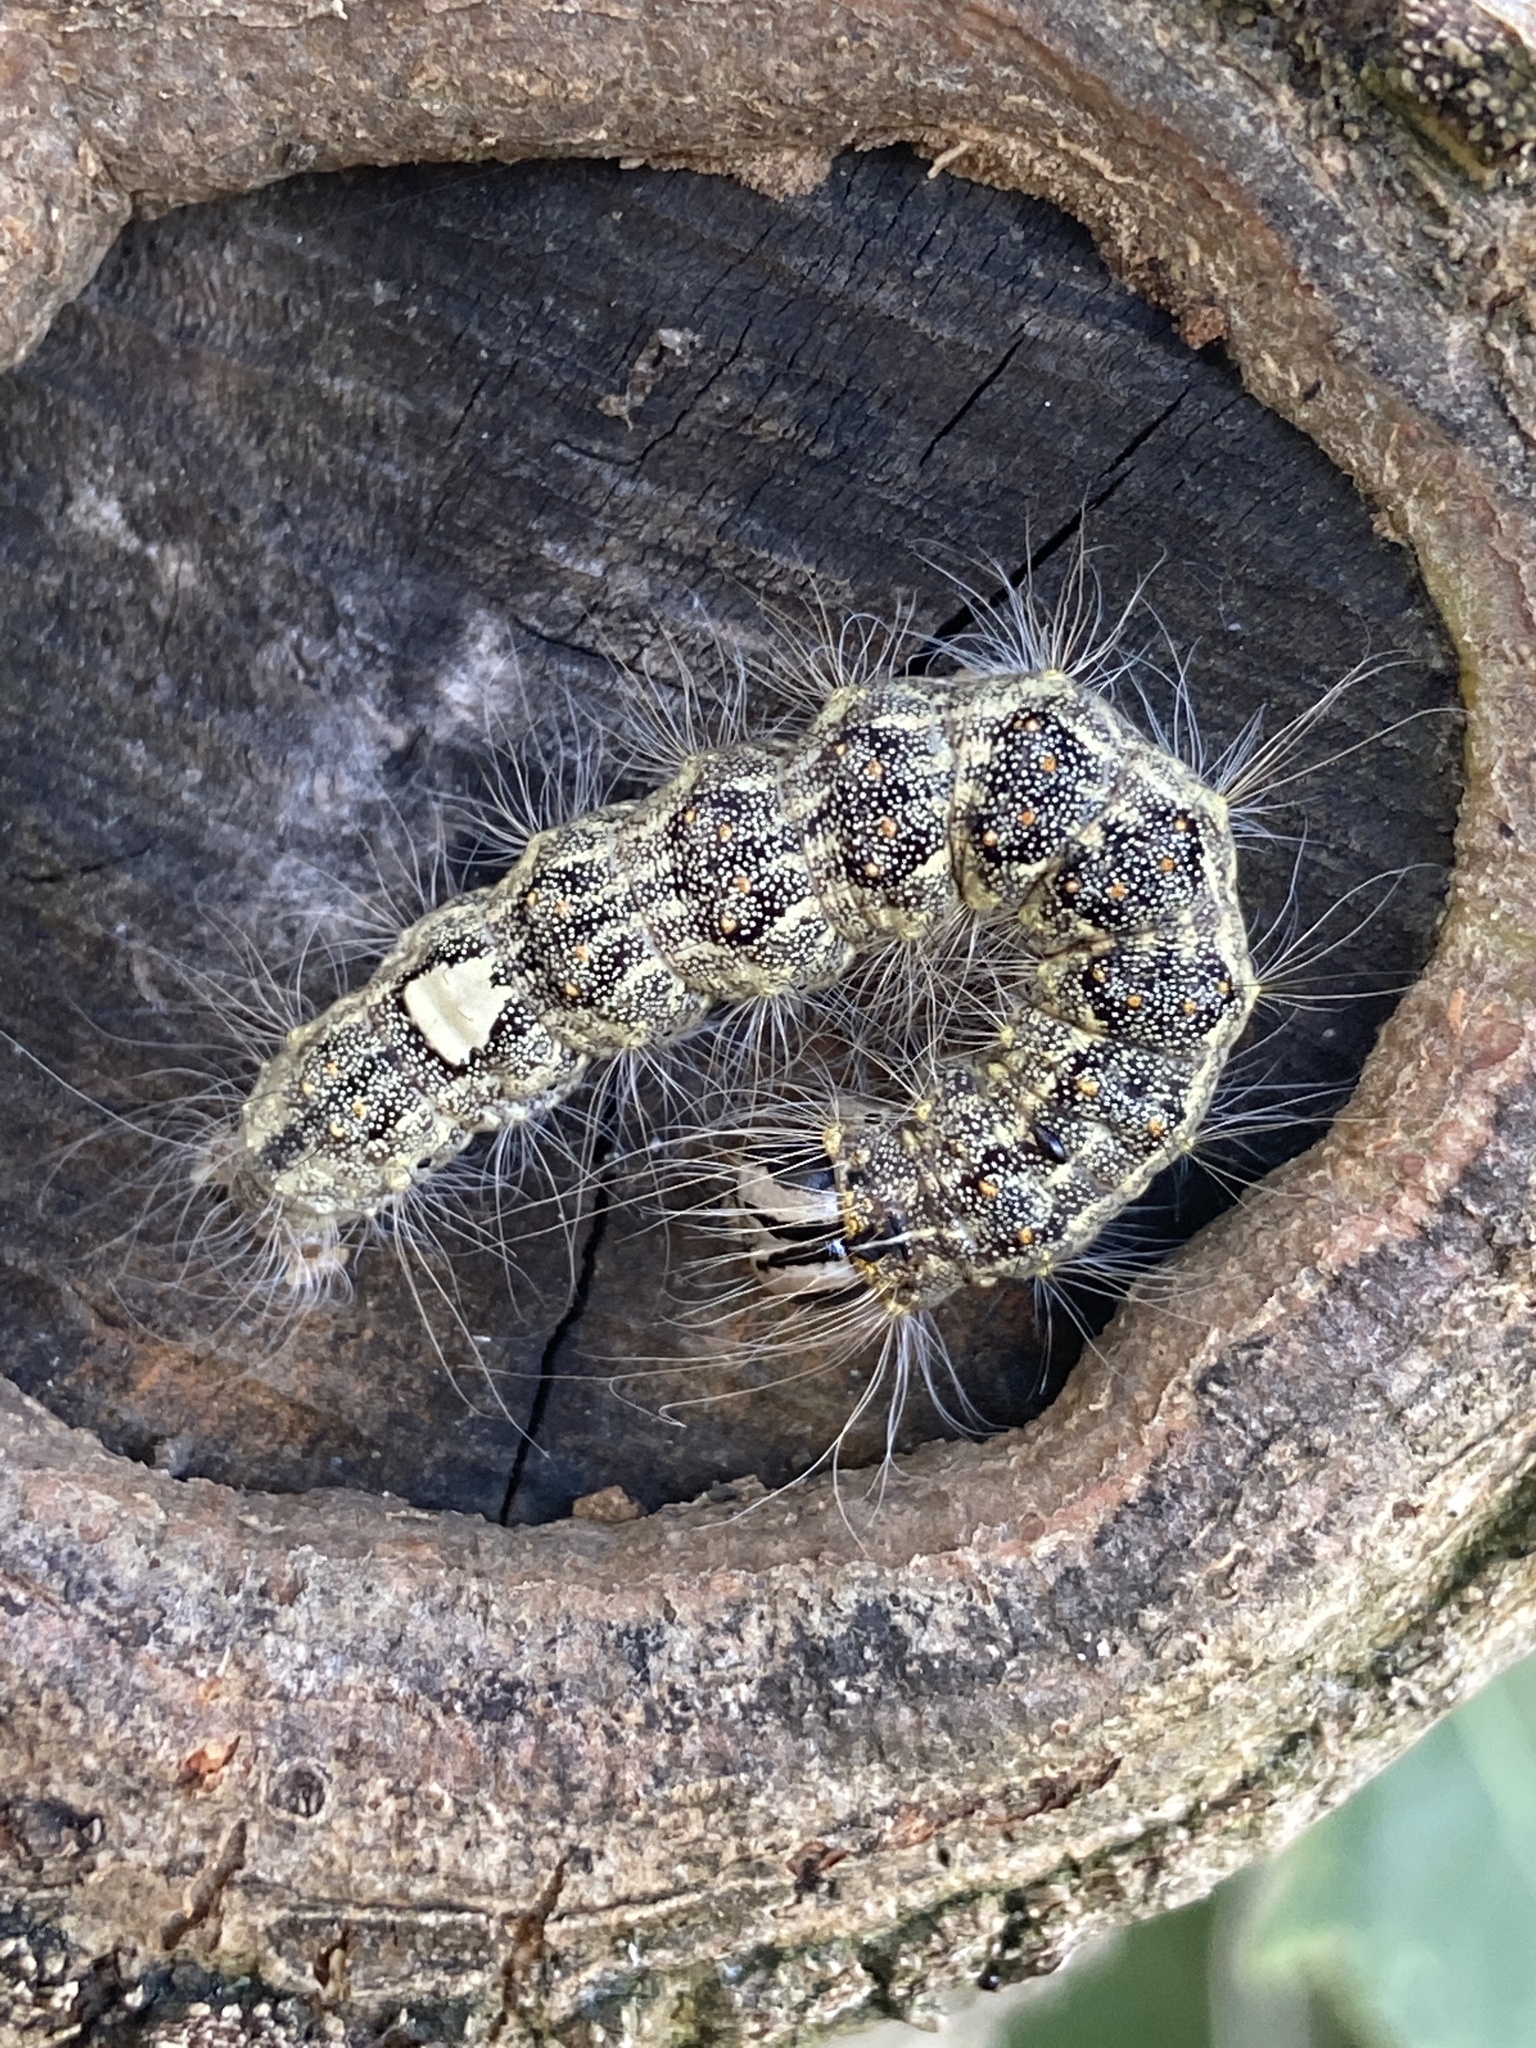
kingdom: Animalia
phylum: Arthropoda
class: Insecta
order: Lepidoptera
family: Noctuidae
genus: Acronicta
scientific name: Acronicta megacephala
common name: Poplar grey
